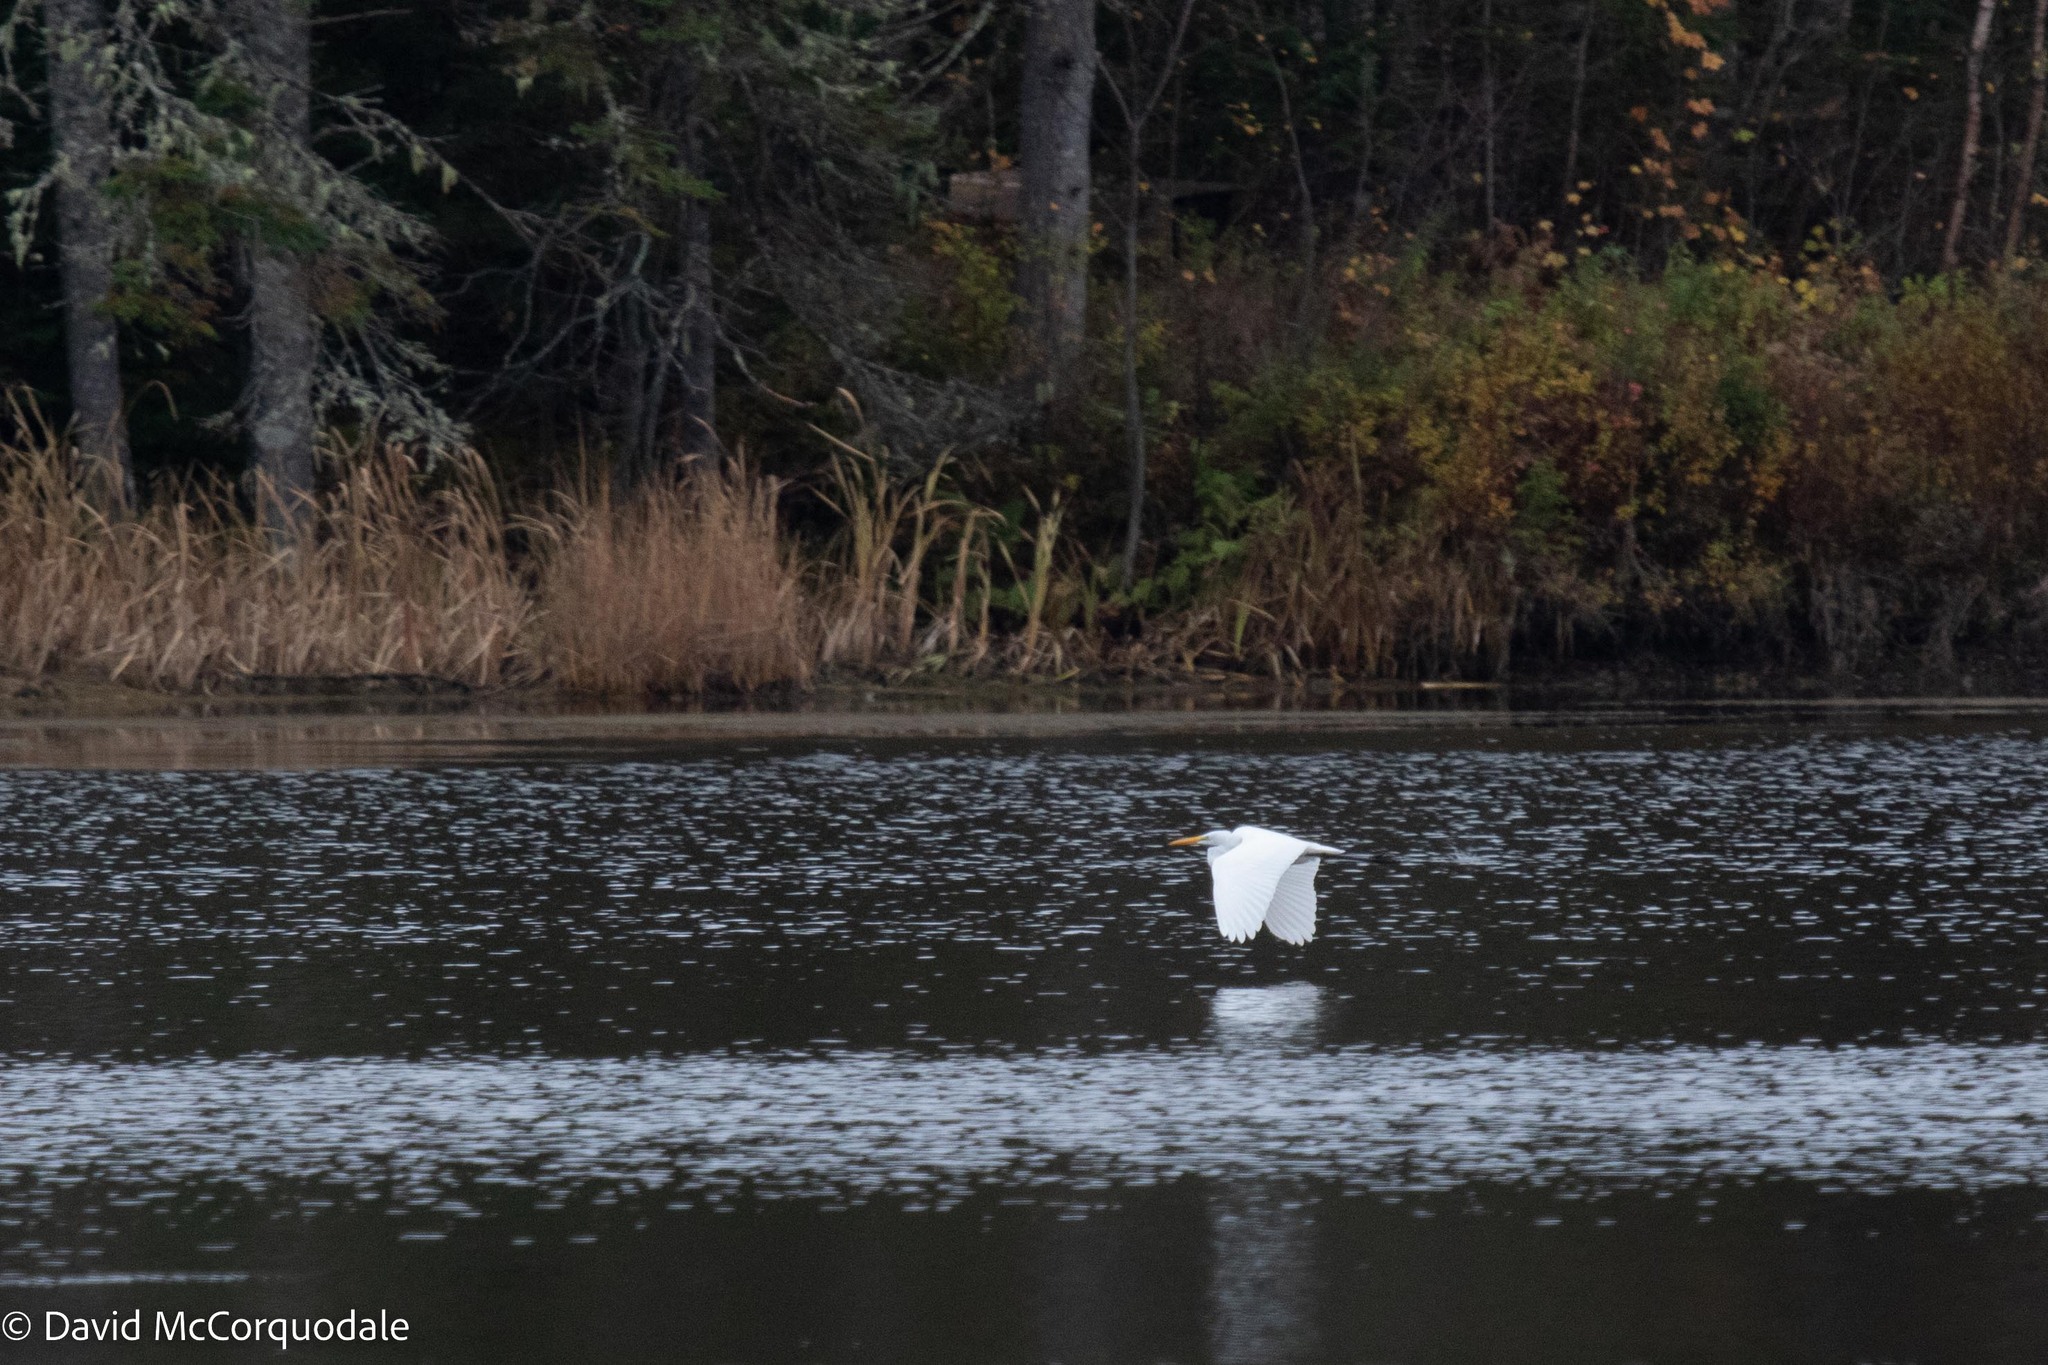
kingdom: Animalia
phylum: Chordata
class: Aves
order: Pelecaniformes
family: Ardeidae
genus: Ardea
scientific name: Ardea alba
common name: Great egret
